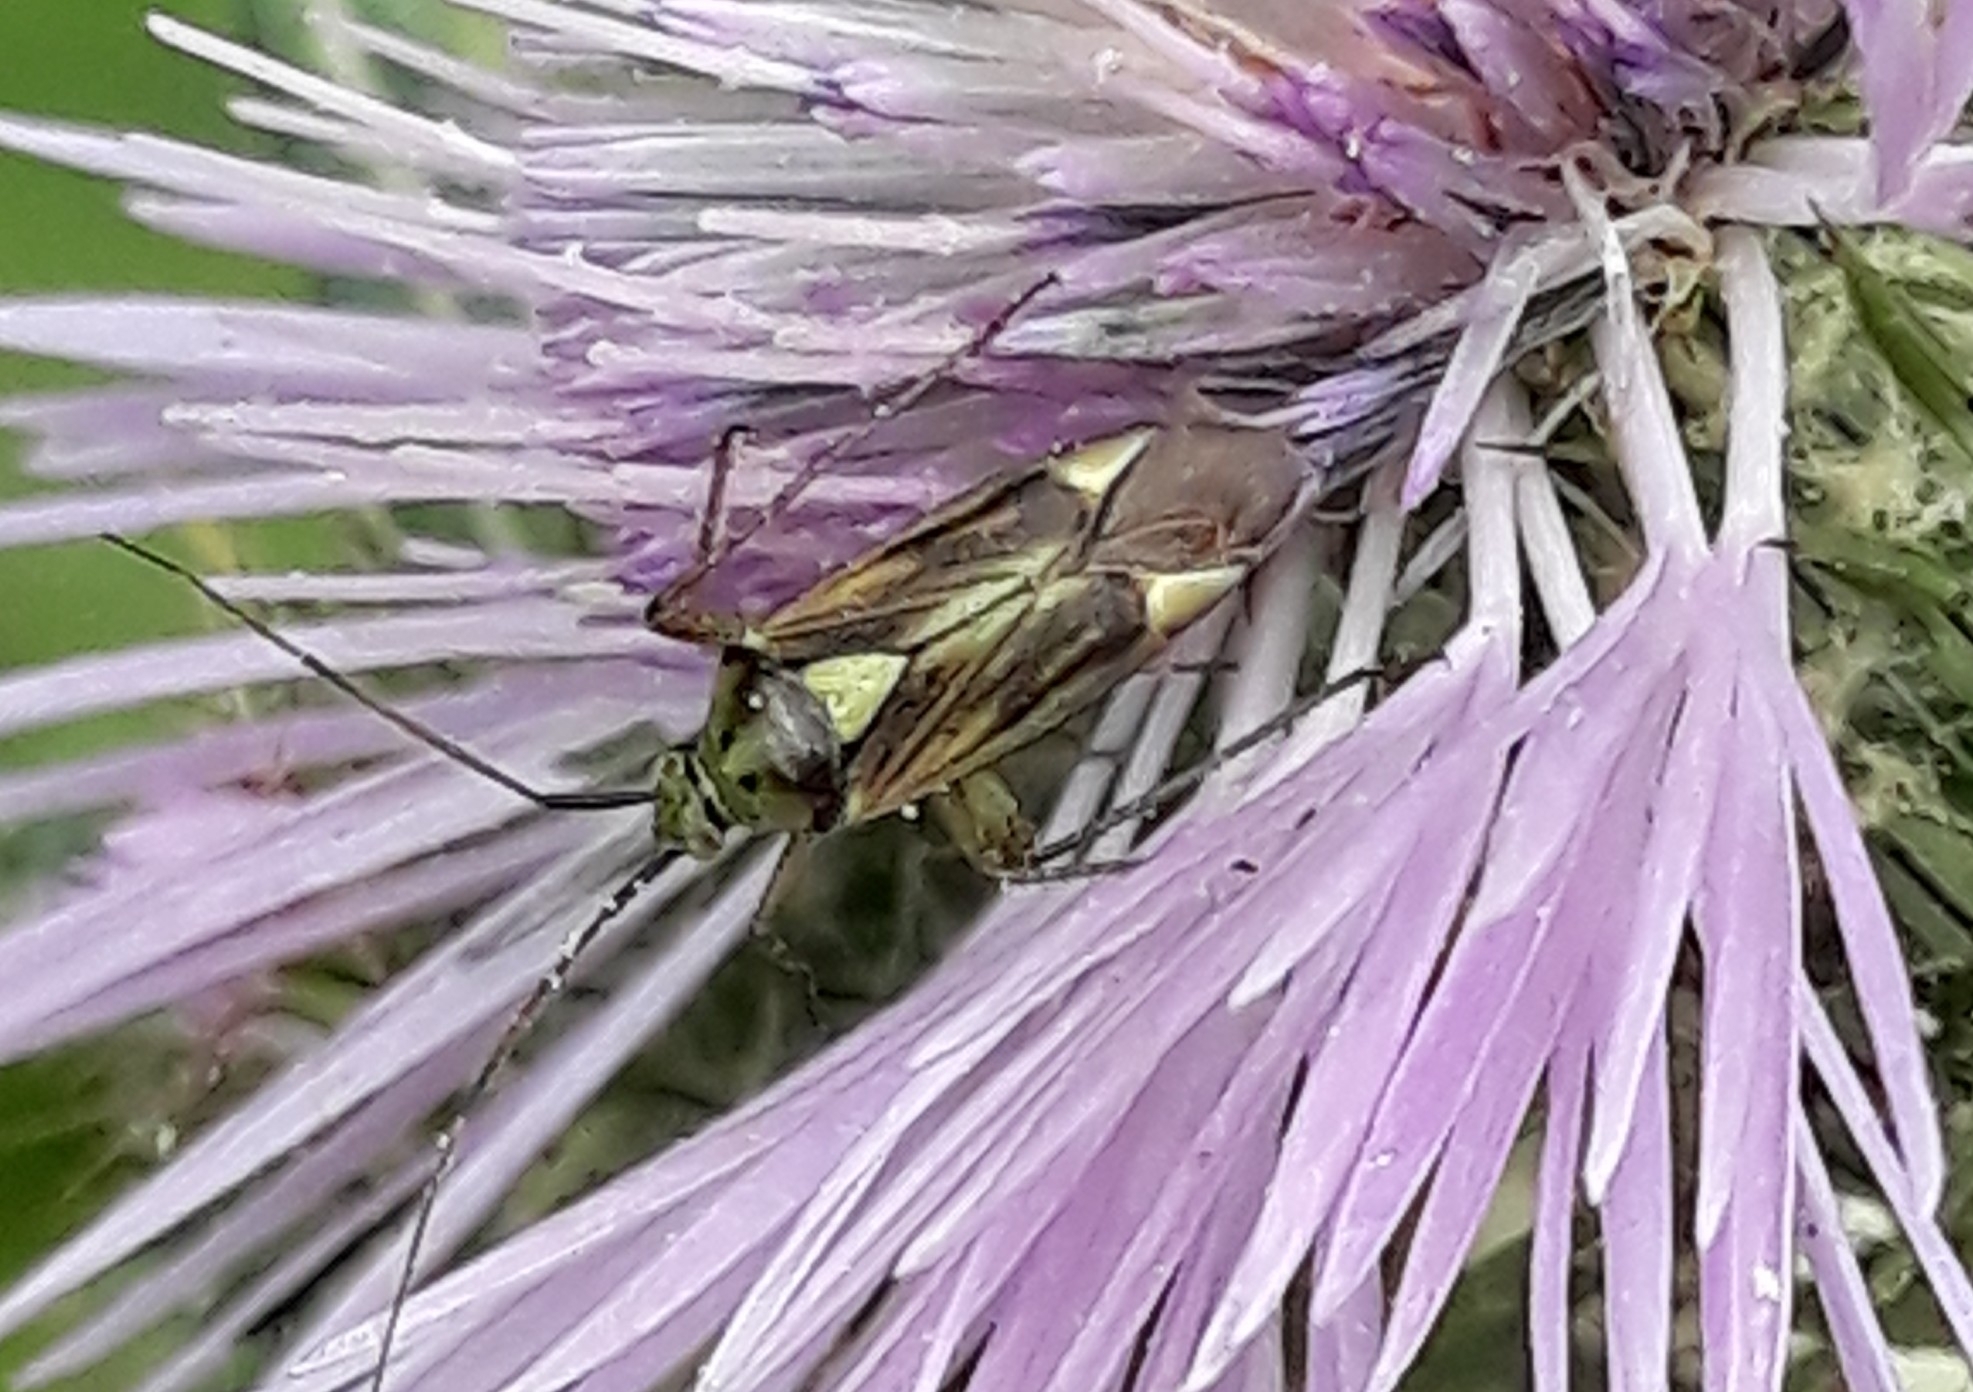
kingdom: Animalia
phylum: Arthropoda
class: Insecta
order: Hemiptera
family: Miridae
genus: Closterotomus
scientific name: Closterotomus tunetanus
